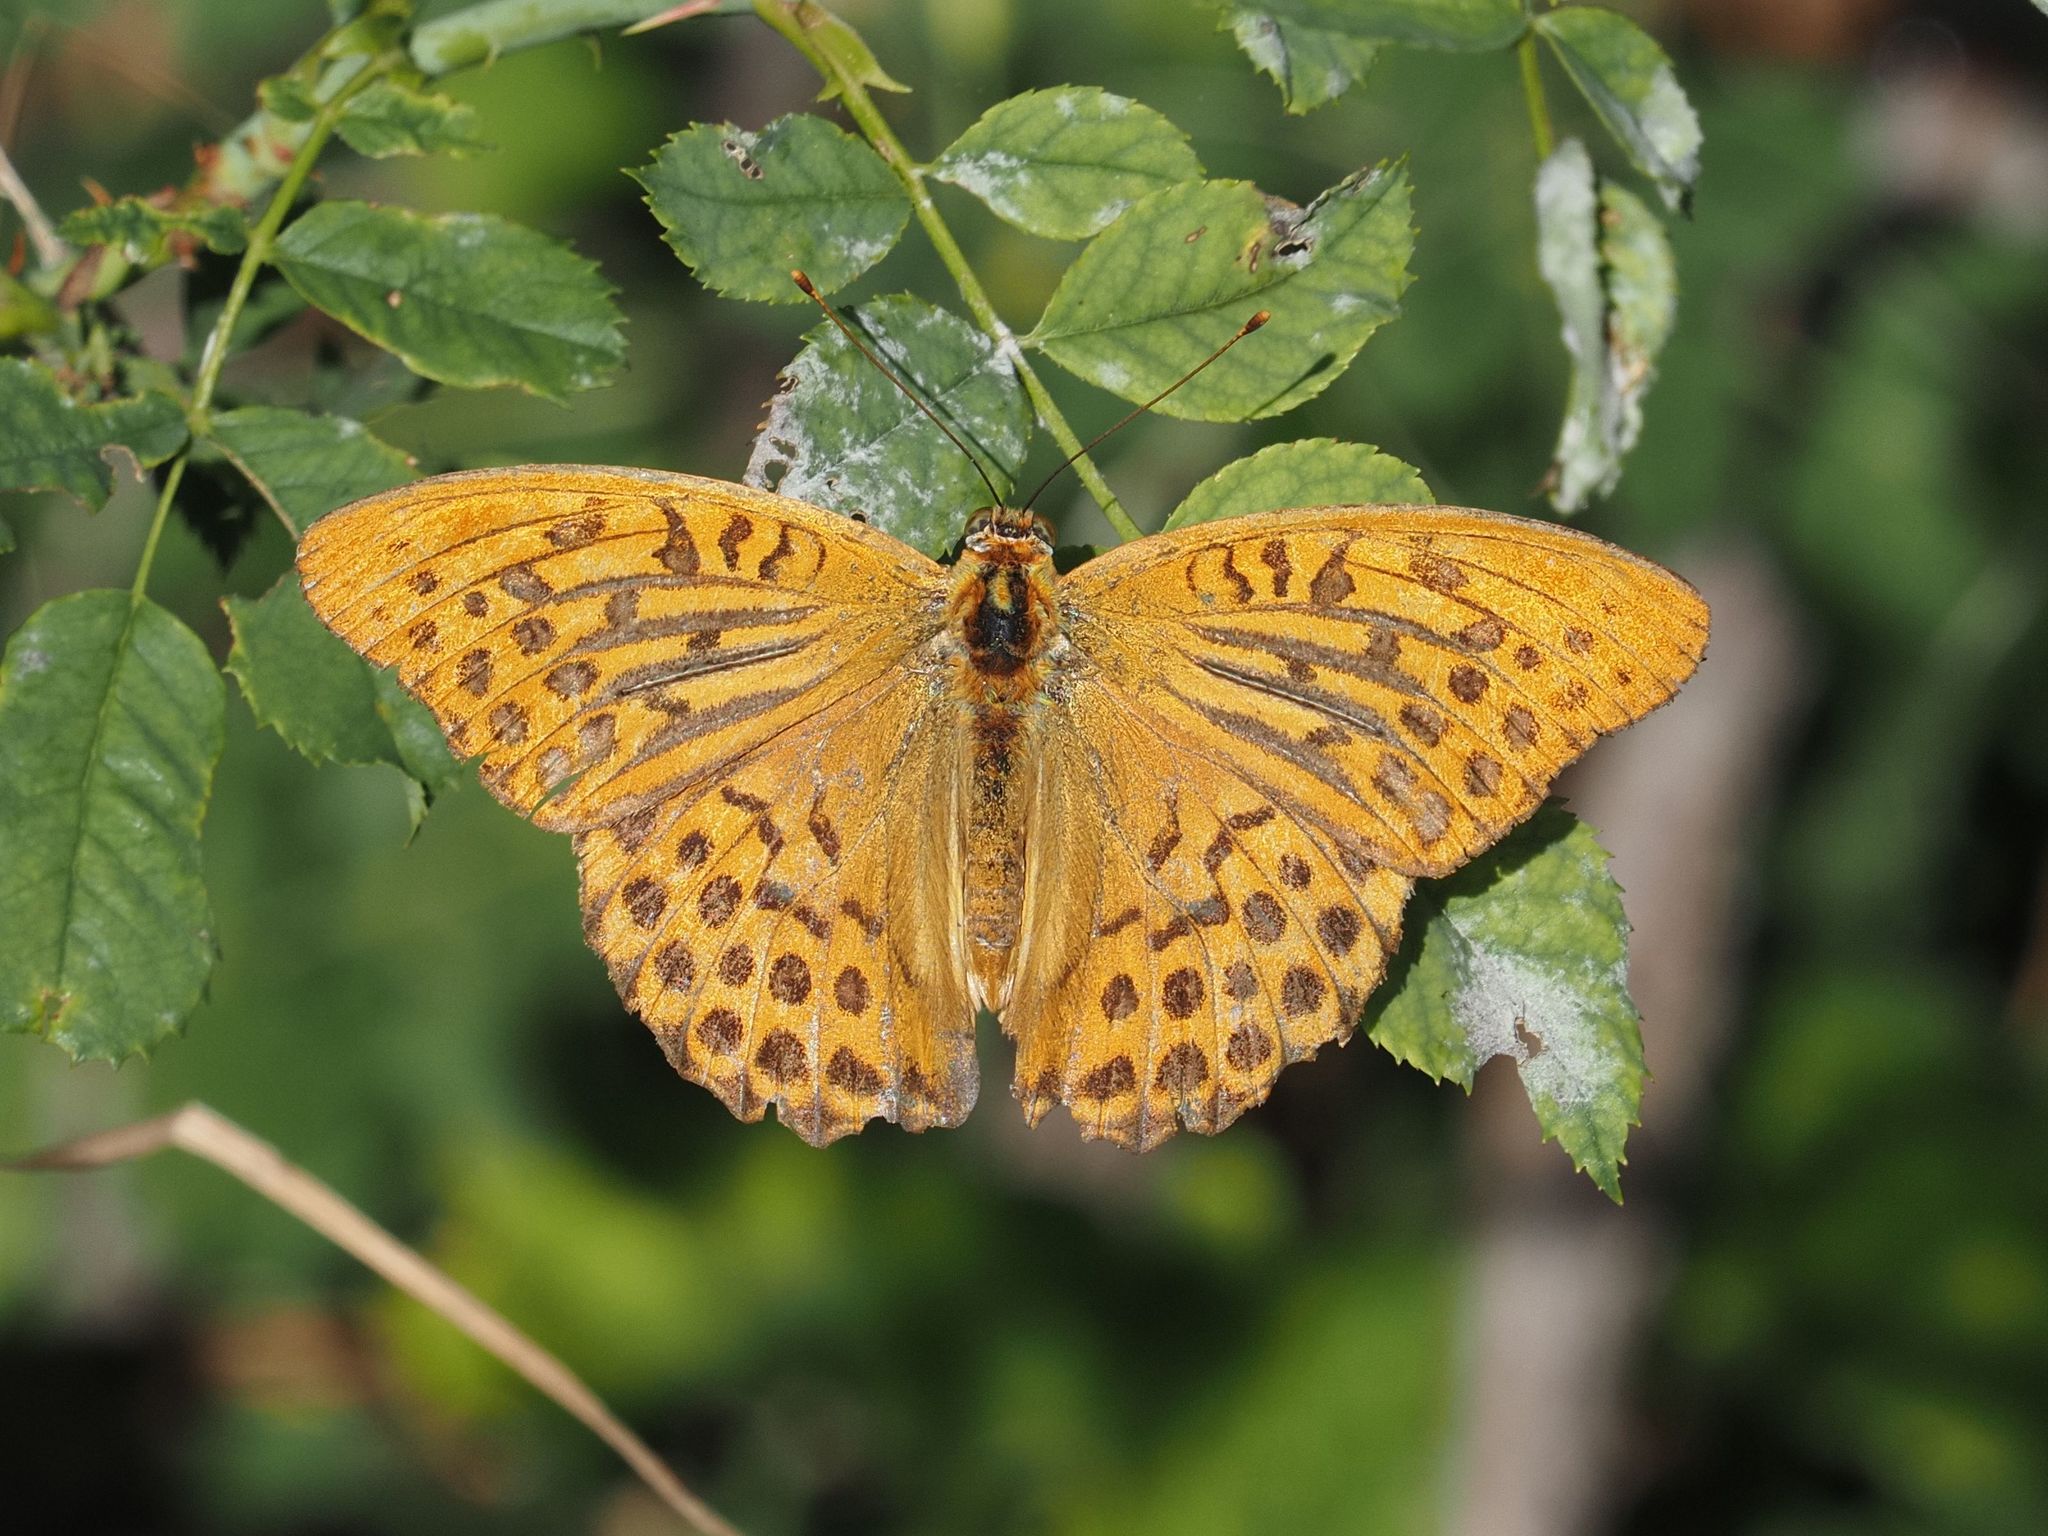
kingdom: Animalia
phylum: Arthropoda
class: Insecta
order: Lepidoptera
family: Nymphalidae
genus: Argynnis
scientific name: Argynnis paphia
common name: Silver-washed fritillary
